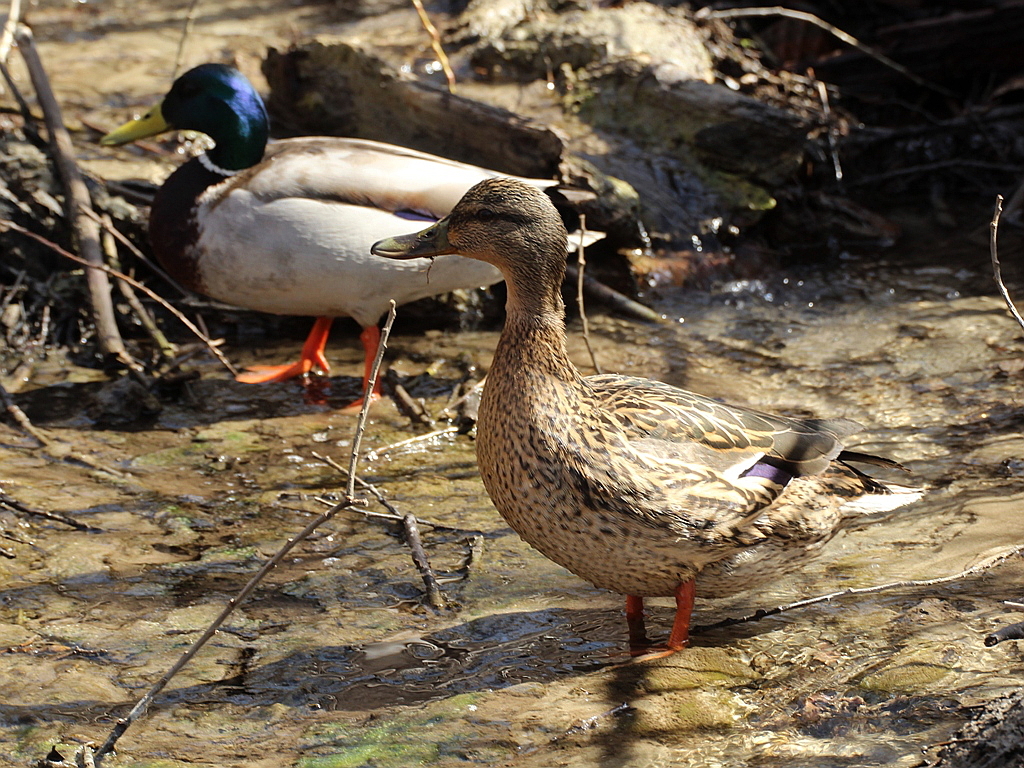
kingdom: Animalia
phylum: Chordata
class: Aves
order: Anseriformes
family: Anatidae
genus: Anas
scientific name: Anas platyrhynchos
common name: Mallard
